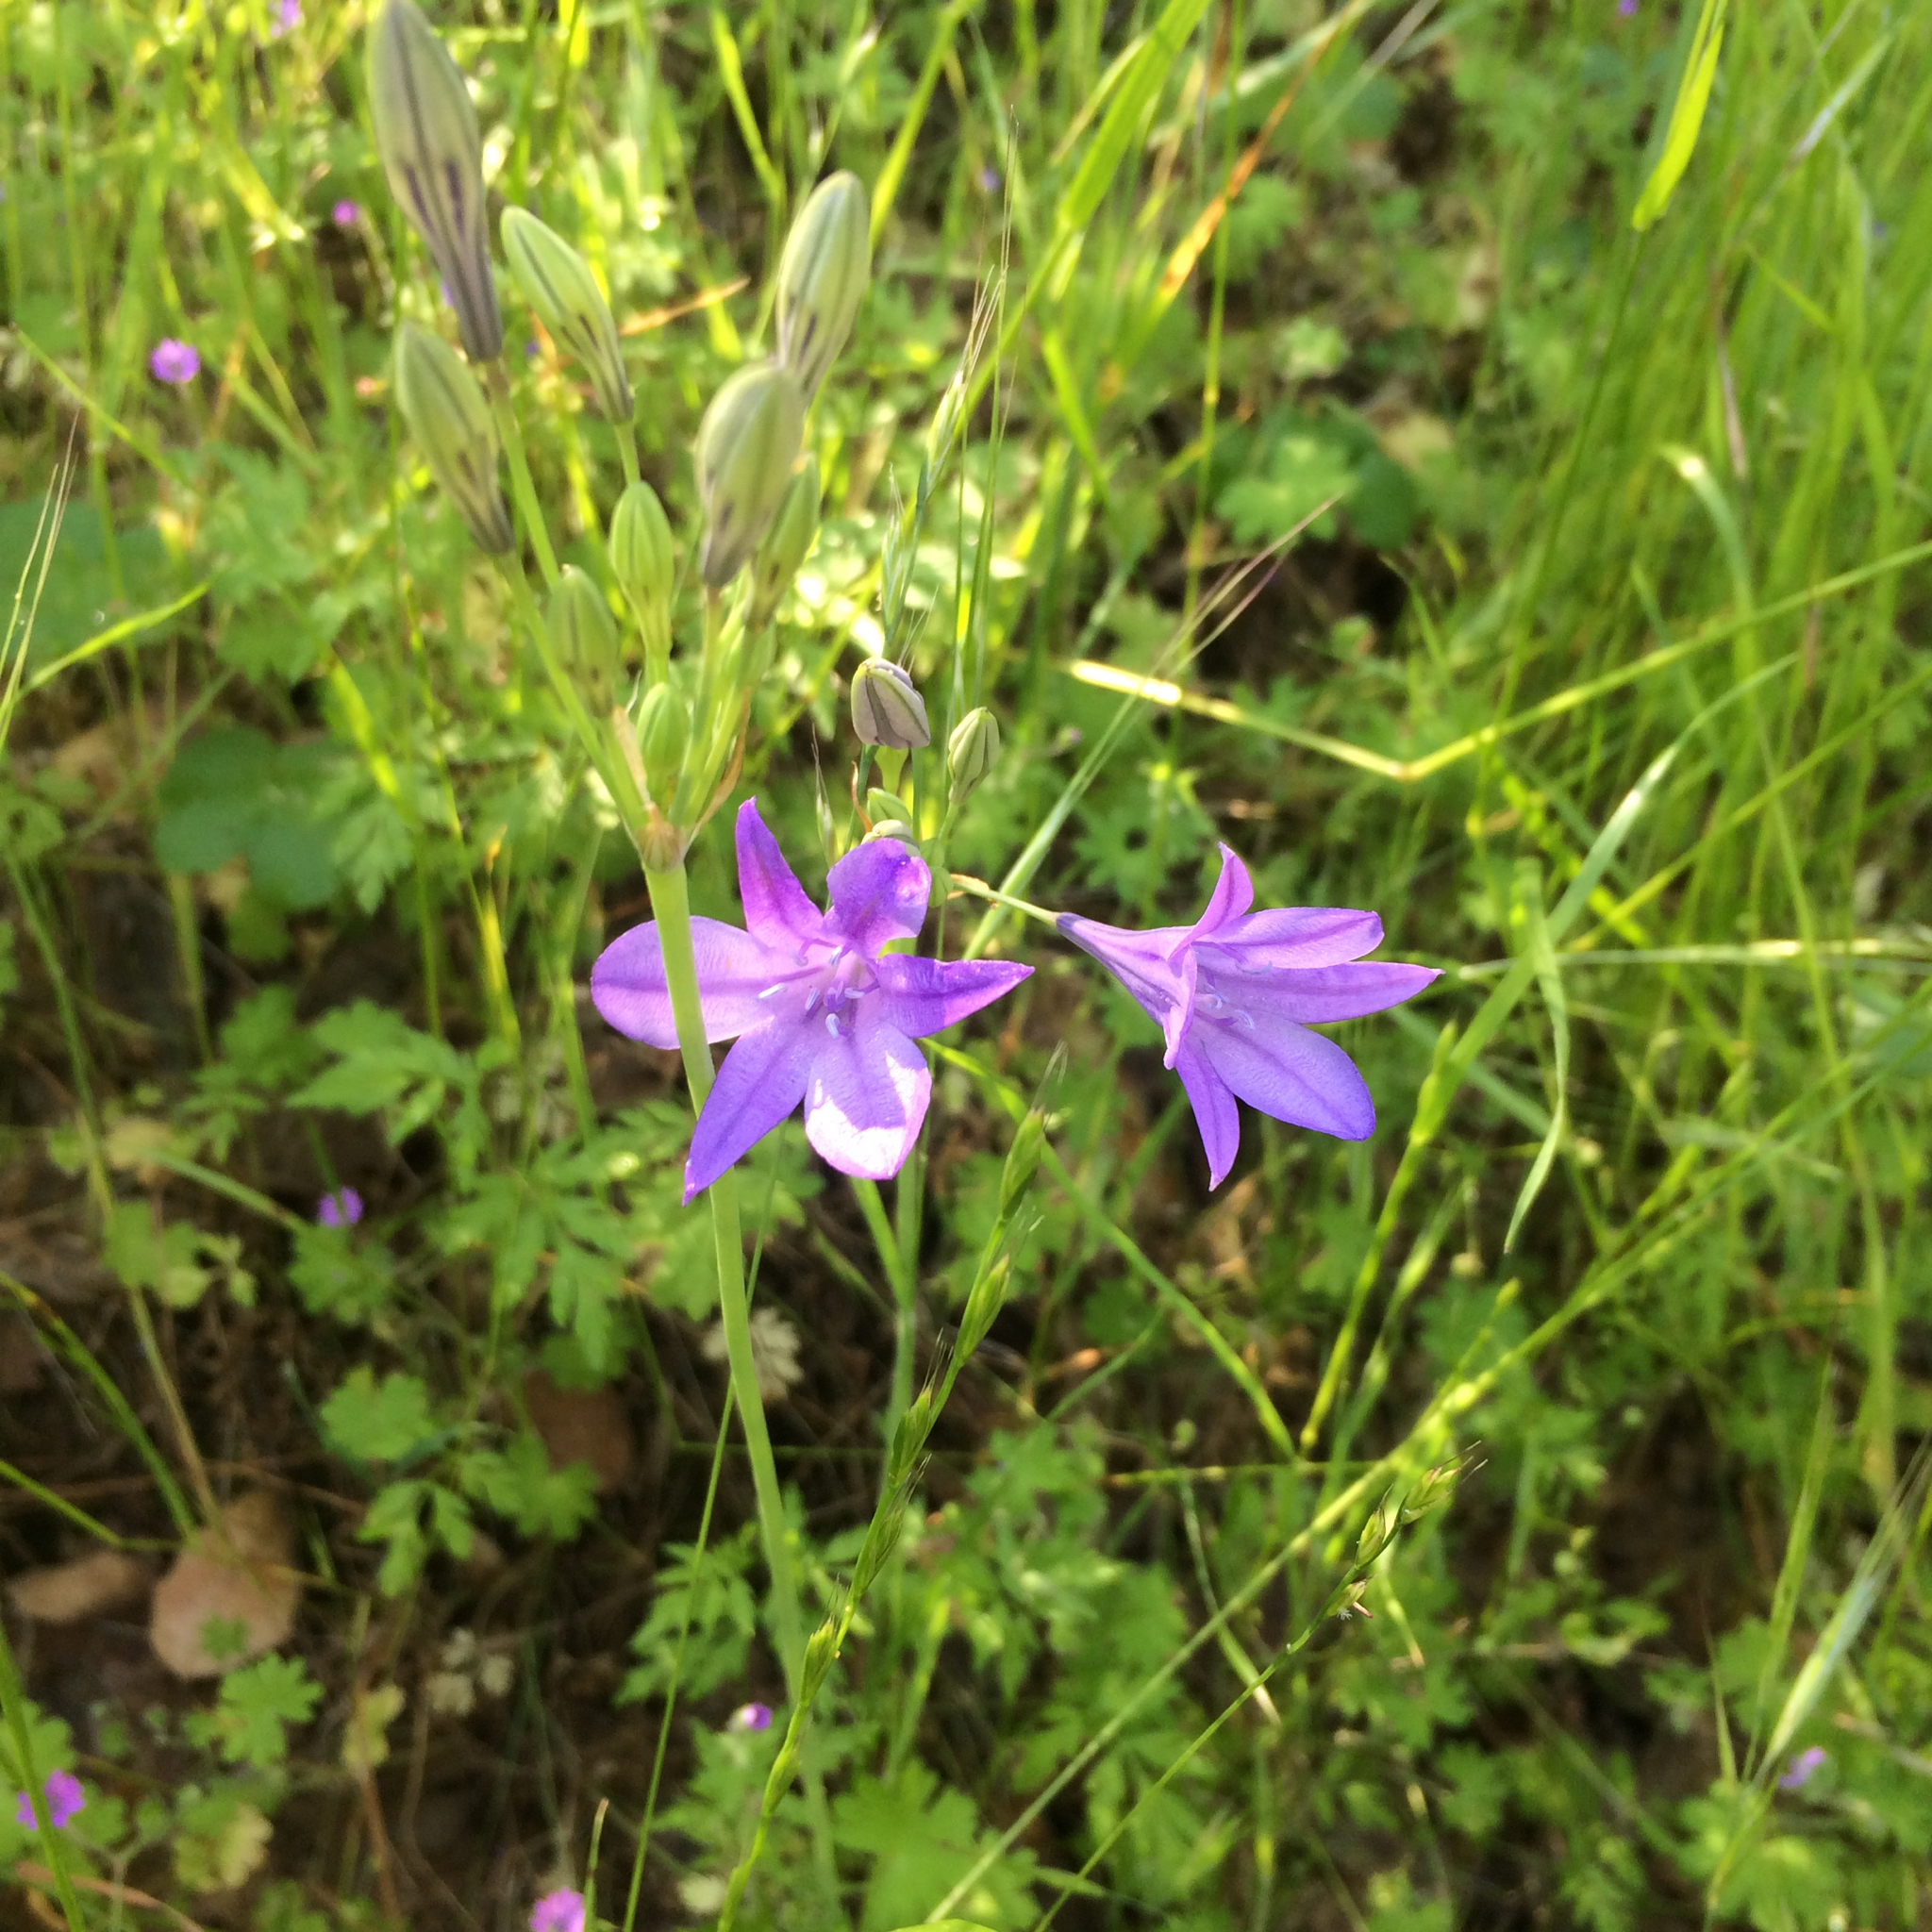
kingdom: Plantae
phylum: Tracheophyta
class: Liliopsida
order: Asparagales
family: Asparagaceae
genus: Triteleia
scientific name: Triteleia laxa
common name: Triplet-lily
